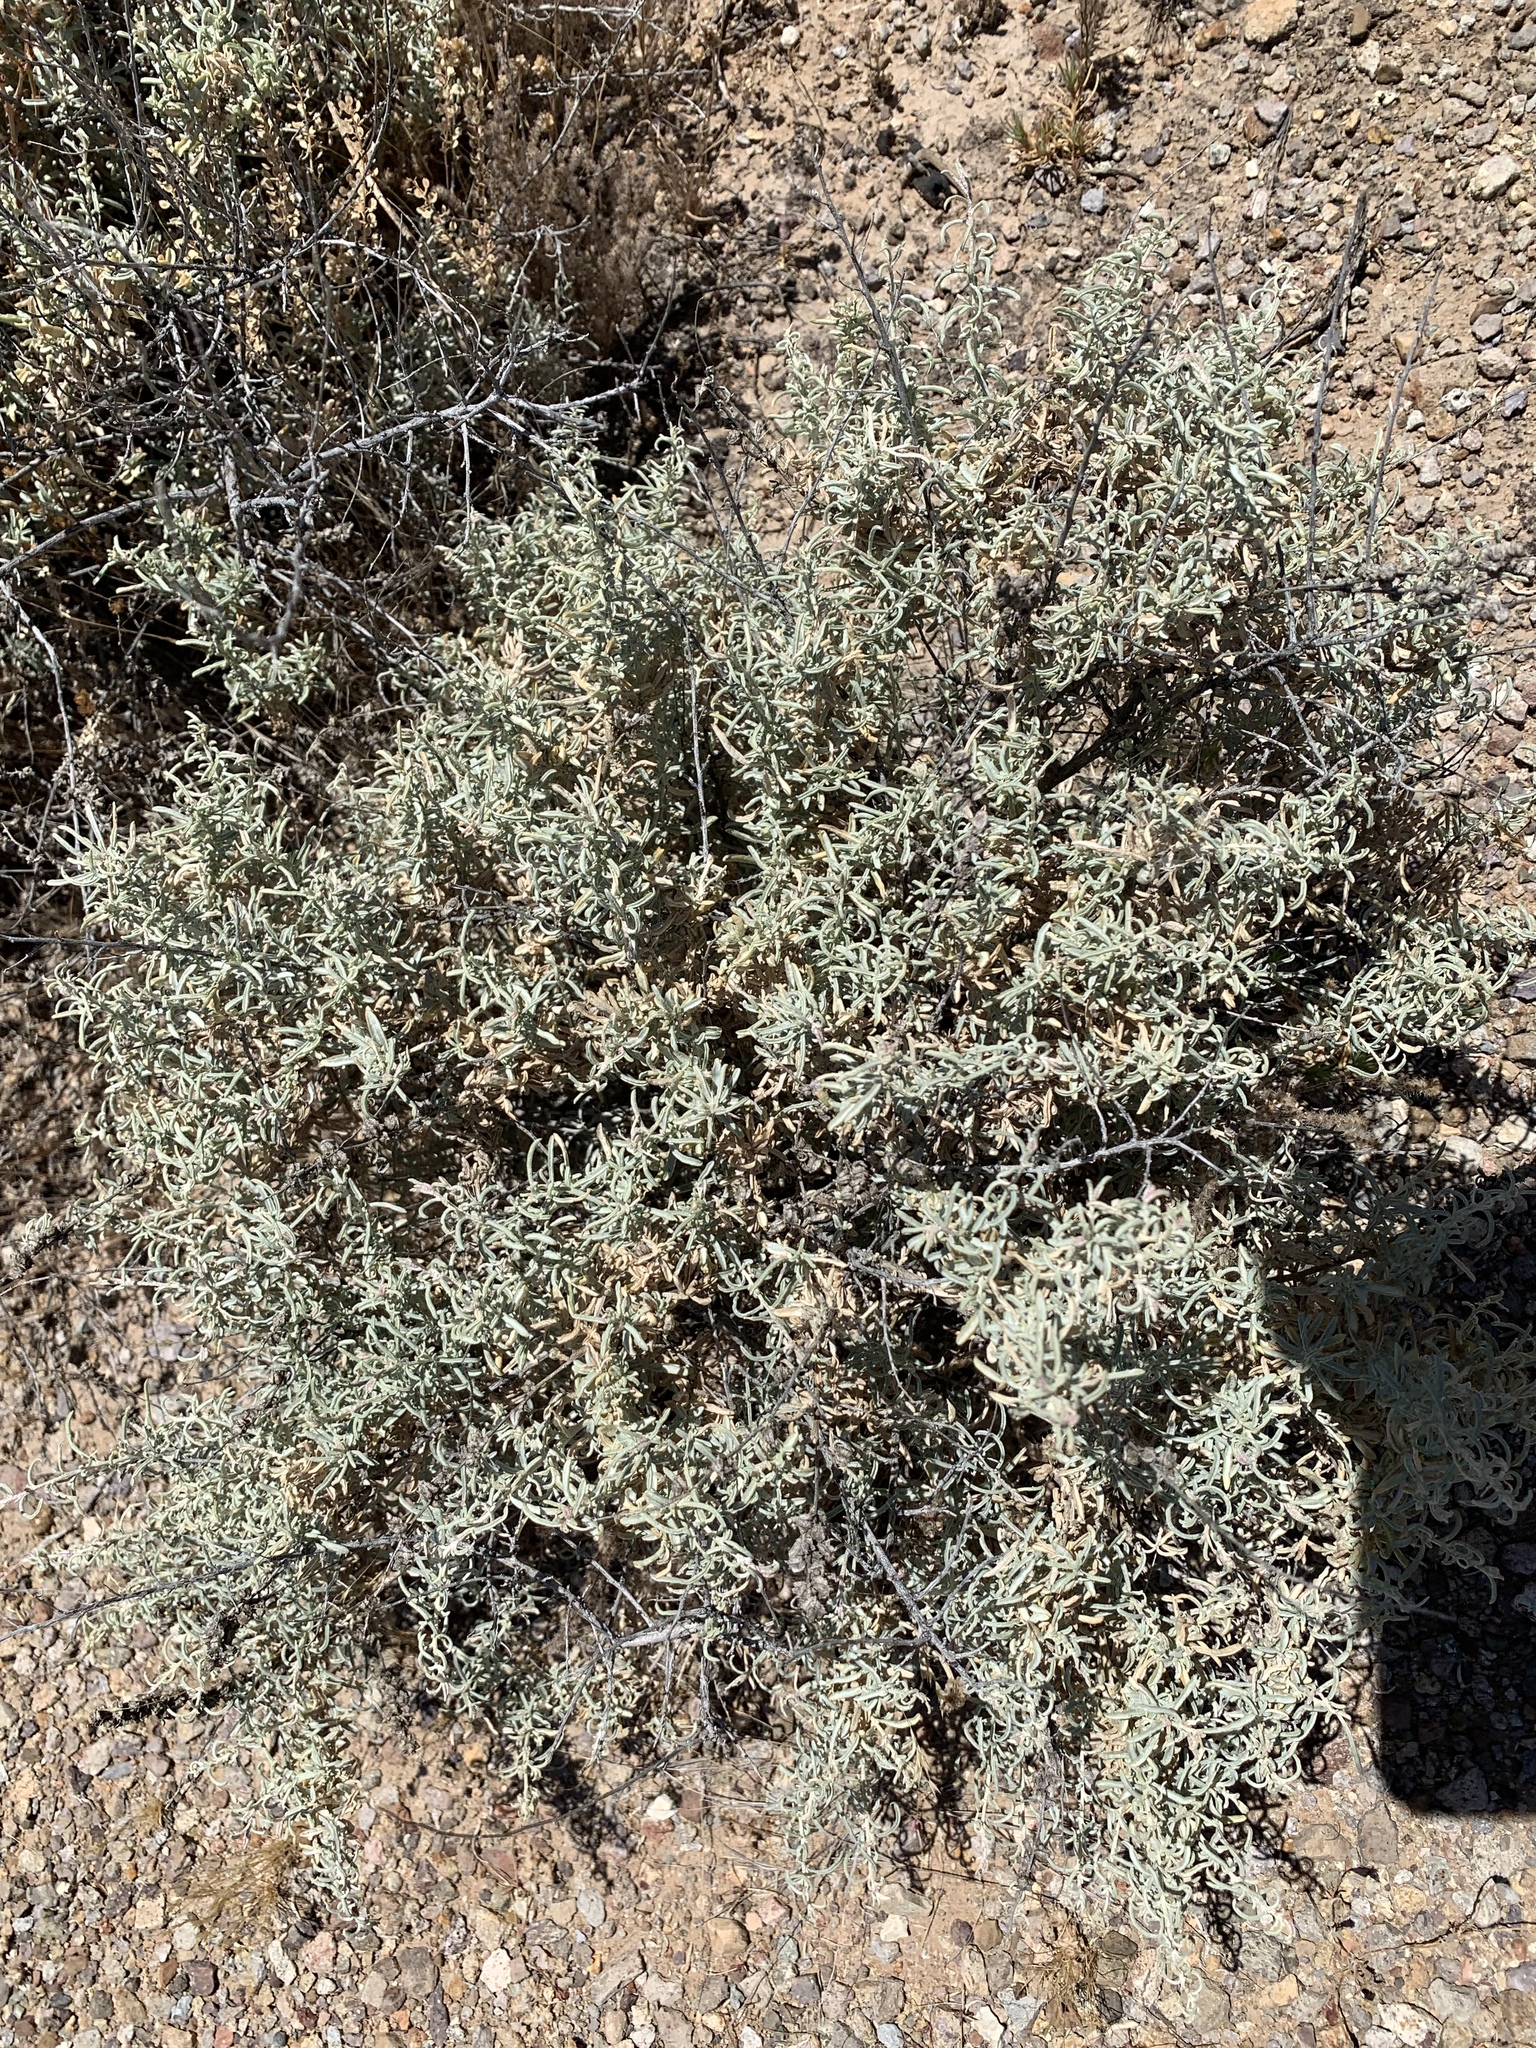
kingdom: Plantae
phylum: Tracheophyta
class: Magnoliopsida
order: Caryophyllales
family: Amaranthaceae
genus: Atriplex
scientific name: Atriplex canescens
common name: Four-wing saltbush
